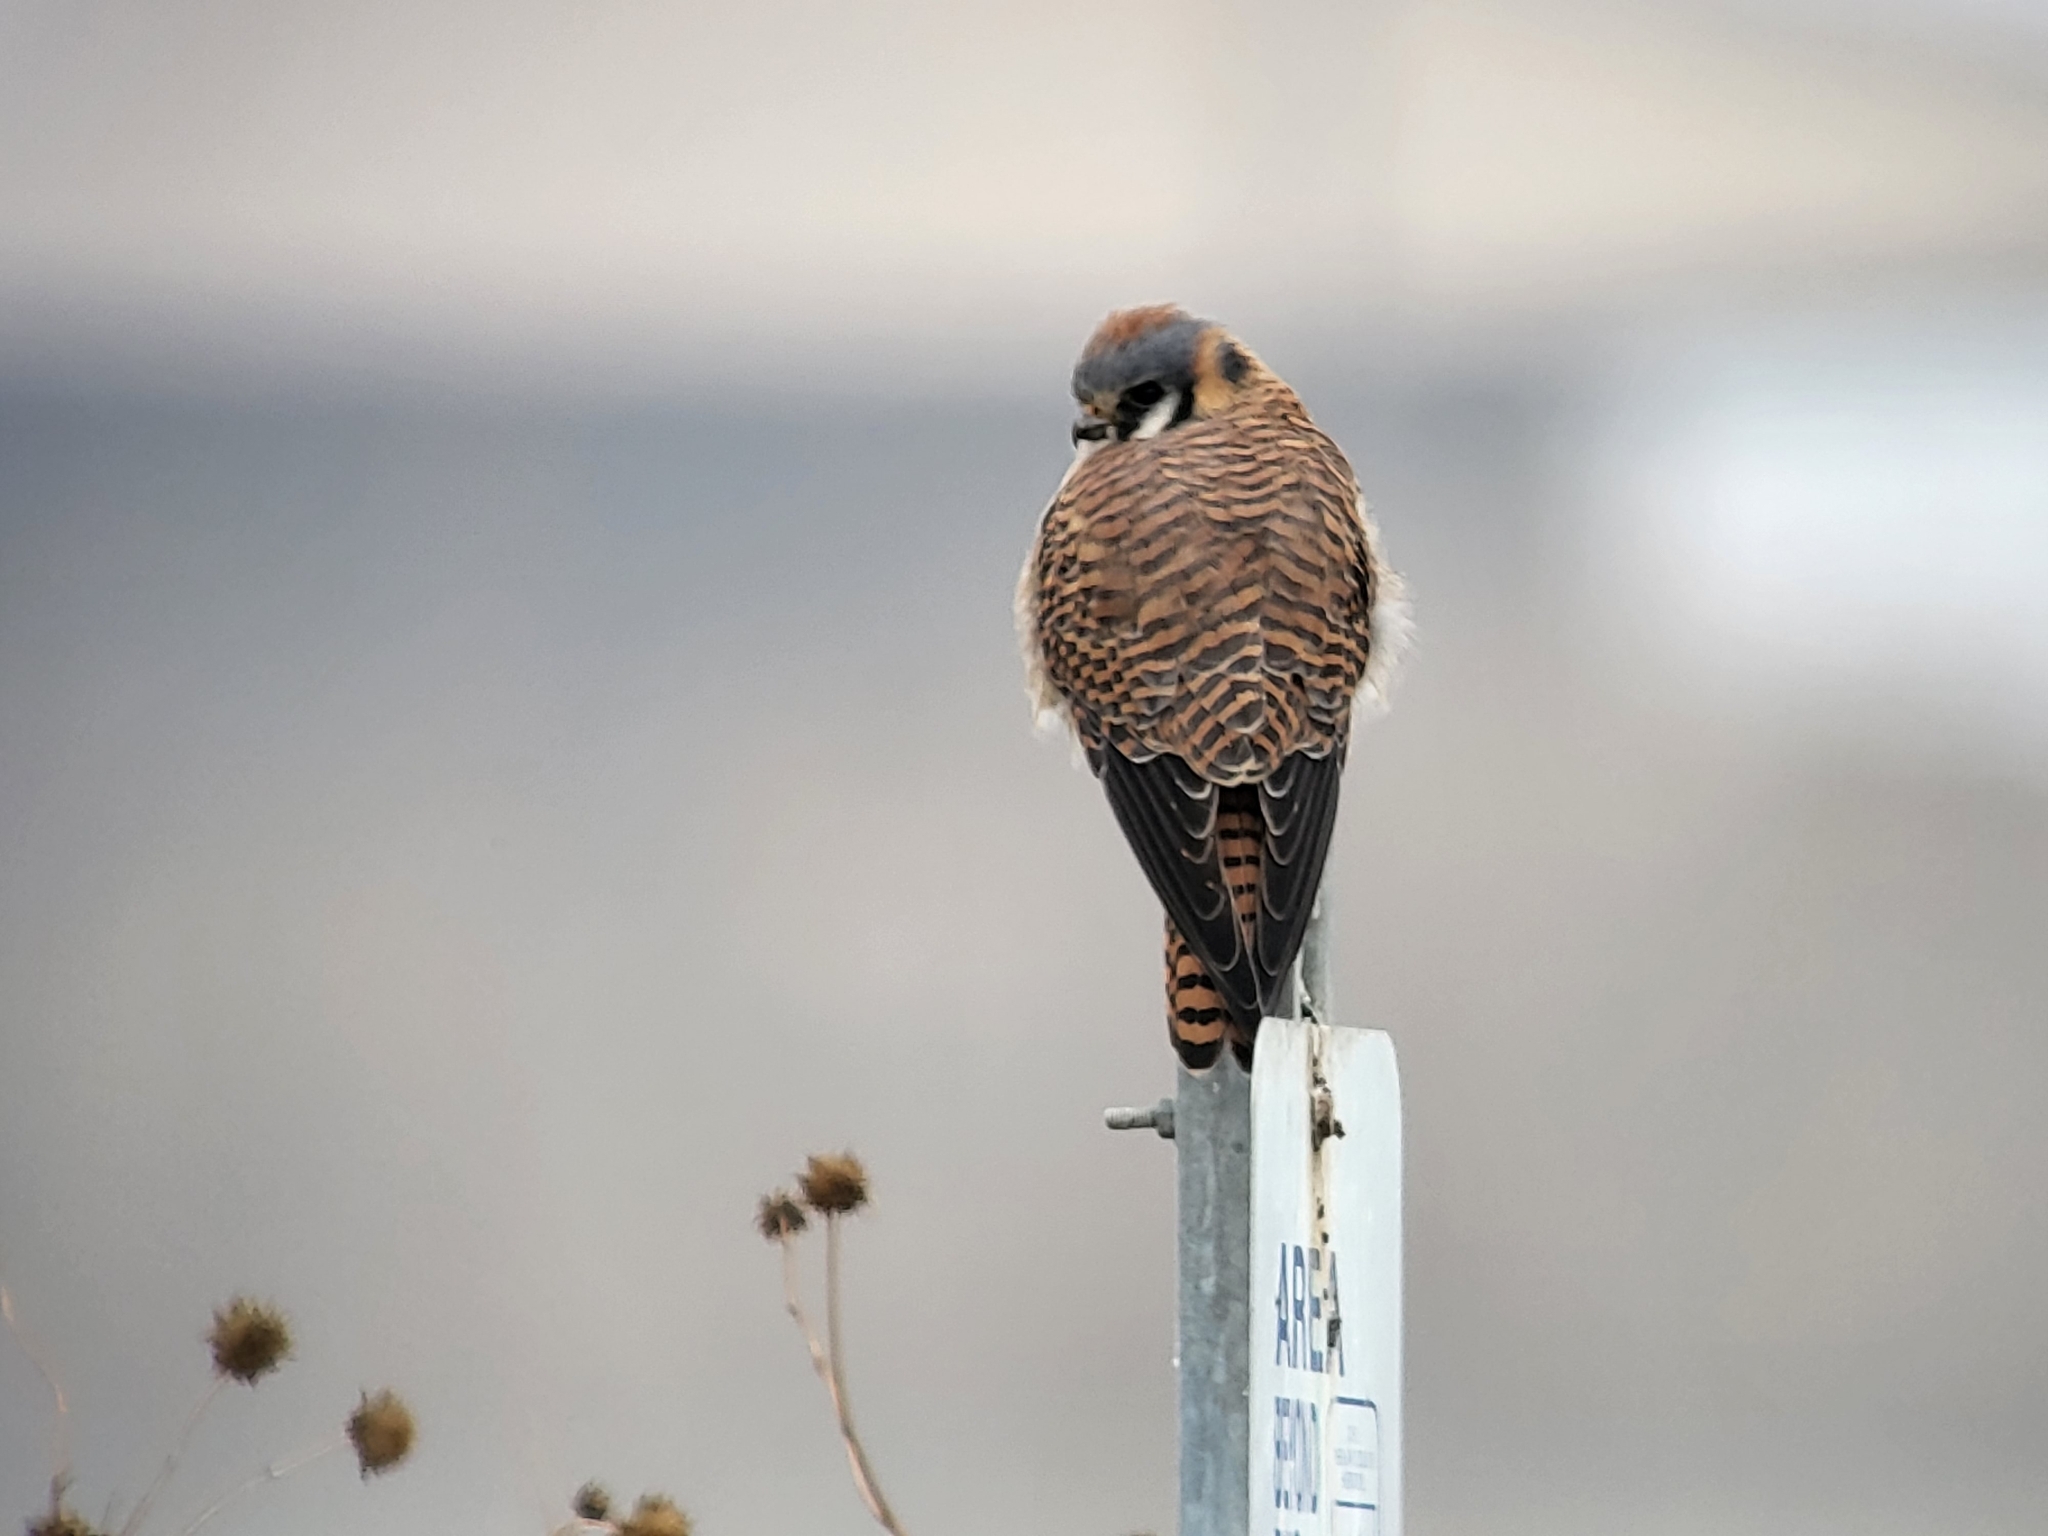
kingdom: Animalia
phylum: Chordata
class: Aves
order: Falconiformes
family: Falconidae
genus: Falco
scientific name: Falco sparverius
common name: American kestrel
